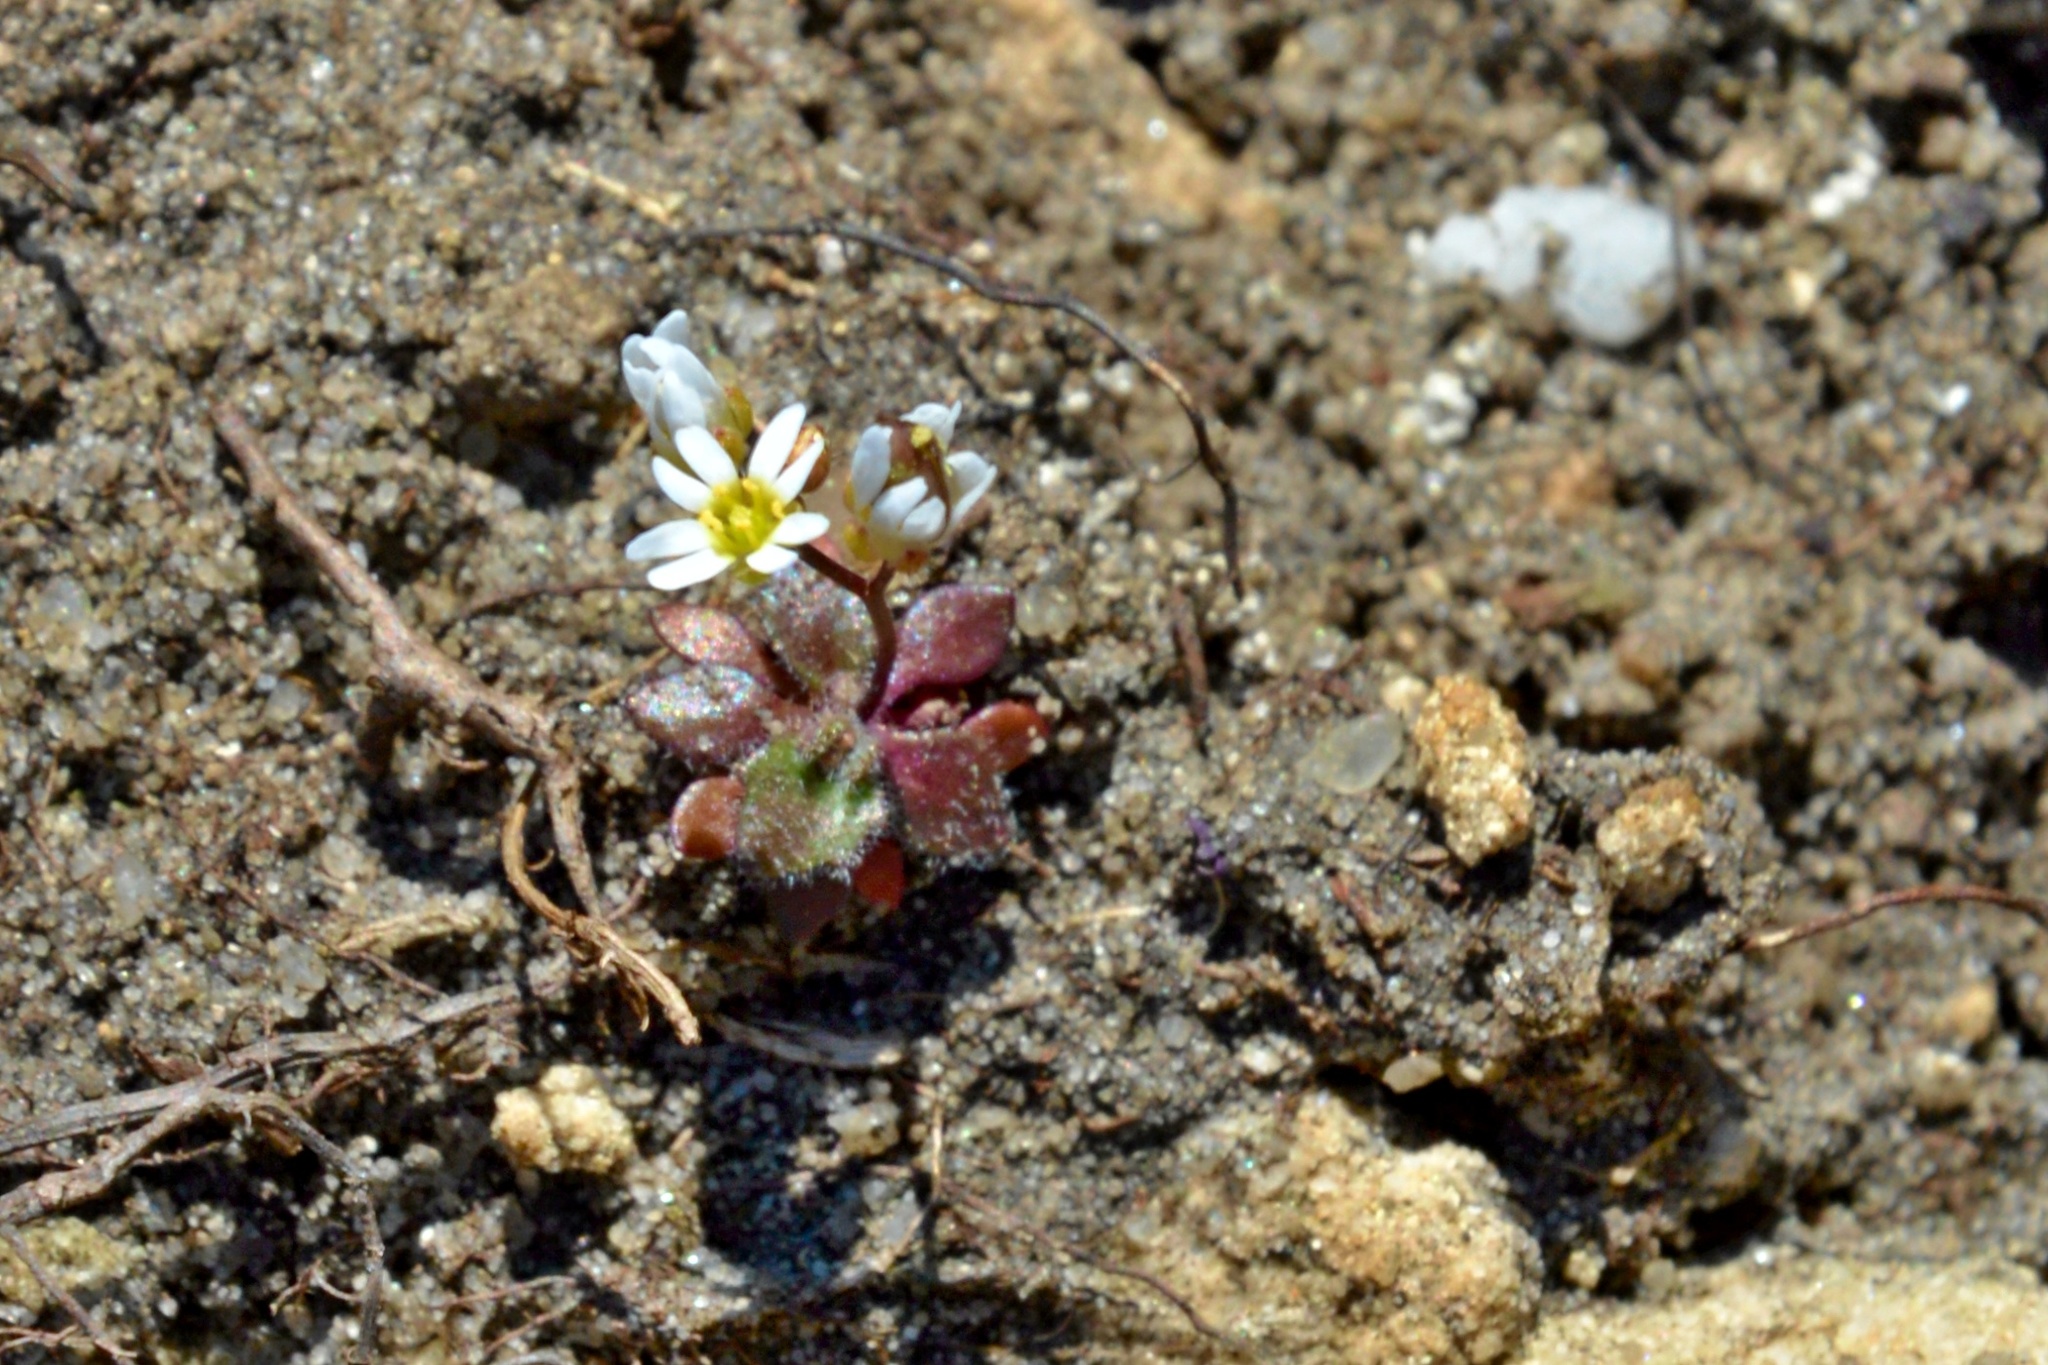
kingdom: Plantae
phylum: Tracheophyta
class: Magnoliopsida
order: Brassicales
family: Brassicaceae
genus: Draba
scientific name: Draba verna
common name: Spring draba
